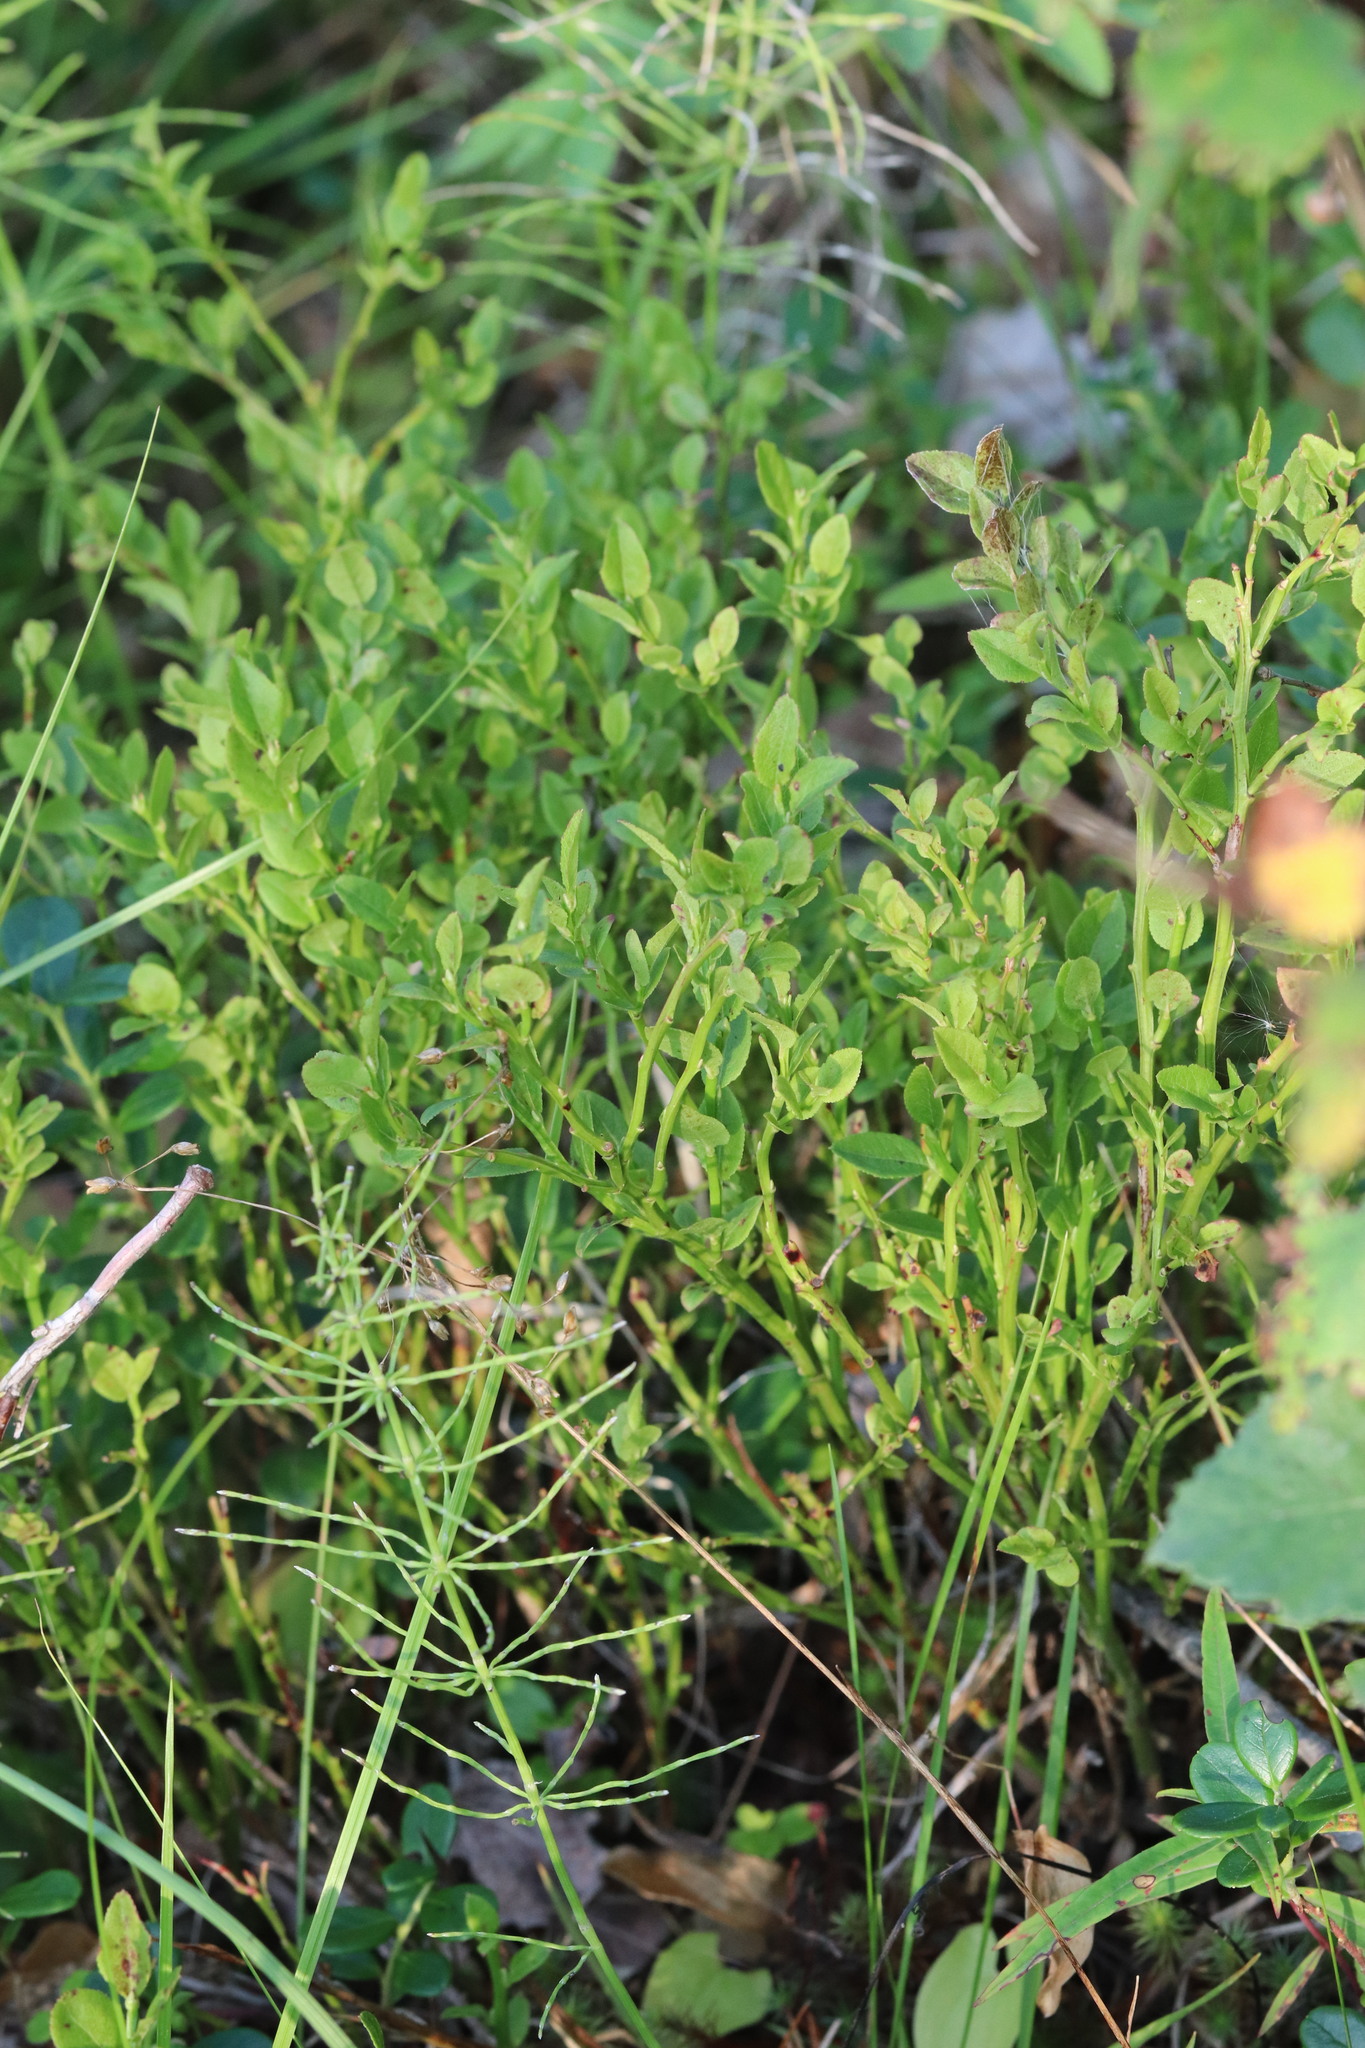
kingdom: Plantae
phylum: Tracheophyta
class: Magnoliopsida
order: Ericales
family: Ericaceae
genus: Vaccinium
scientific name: Vaccinium myrtillus
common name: Bilberry
